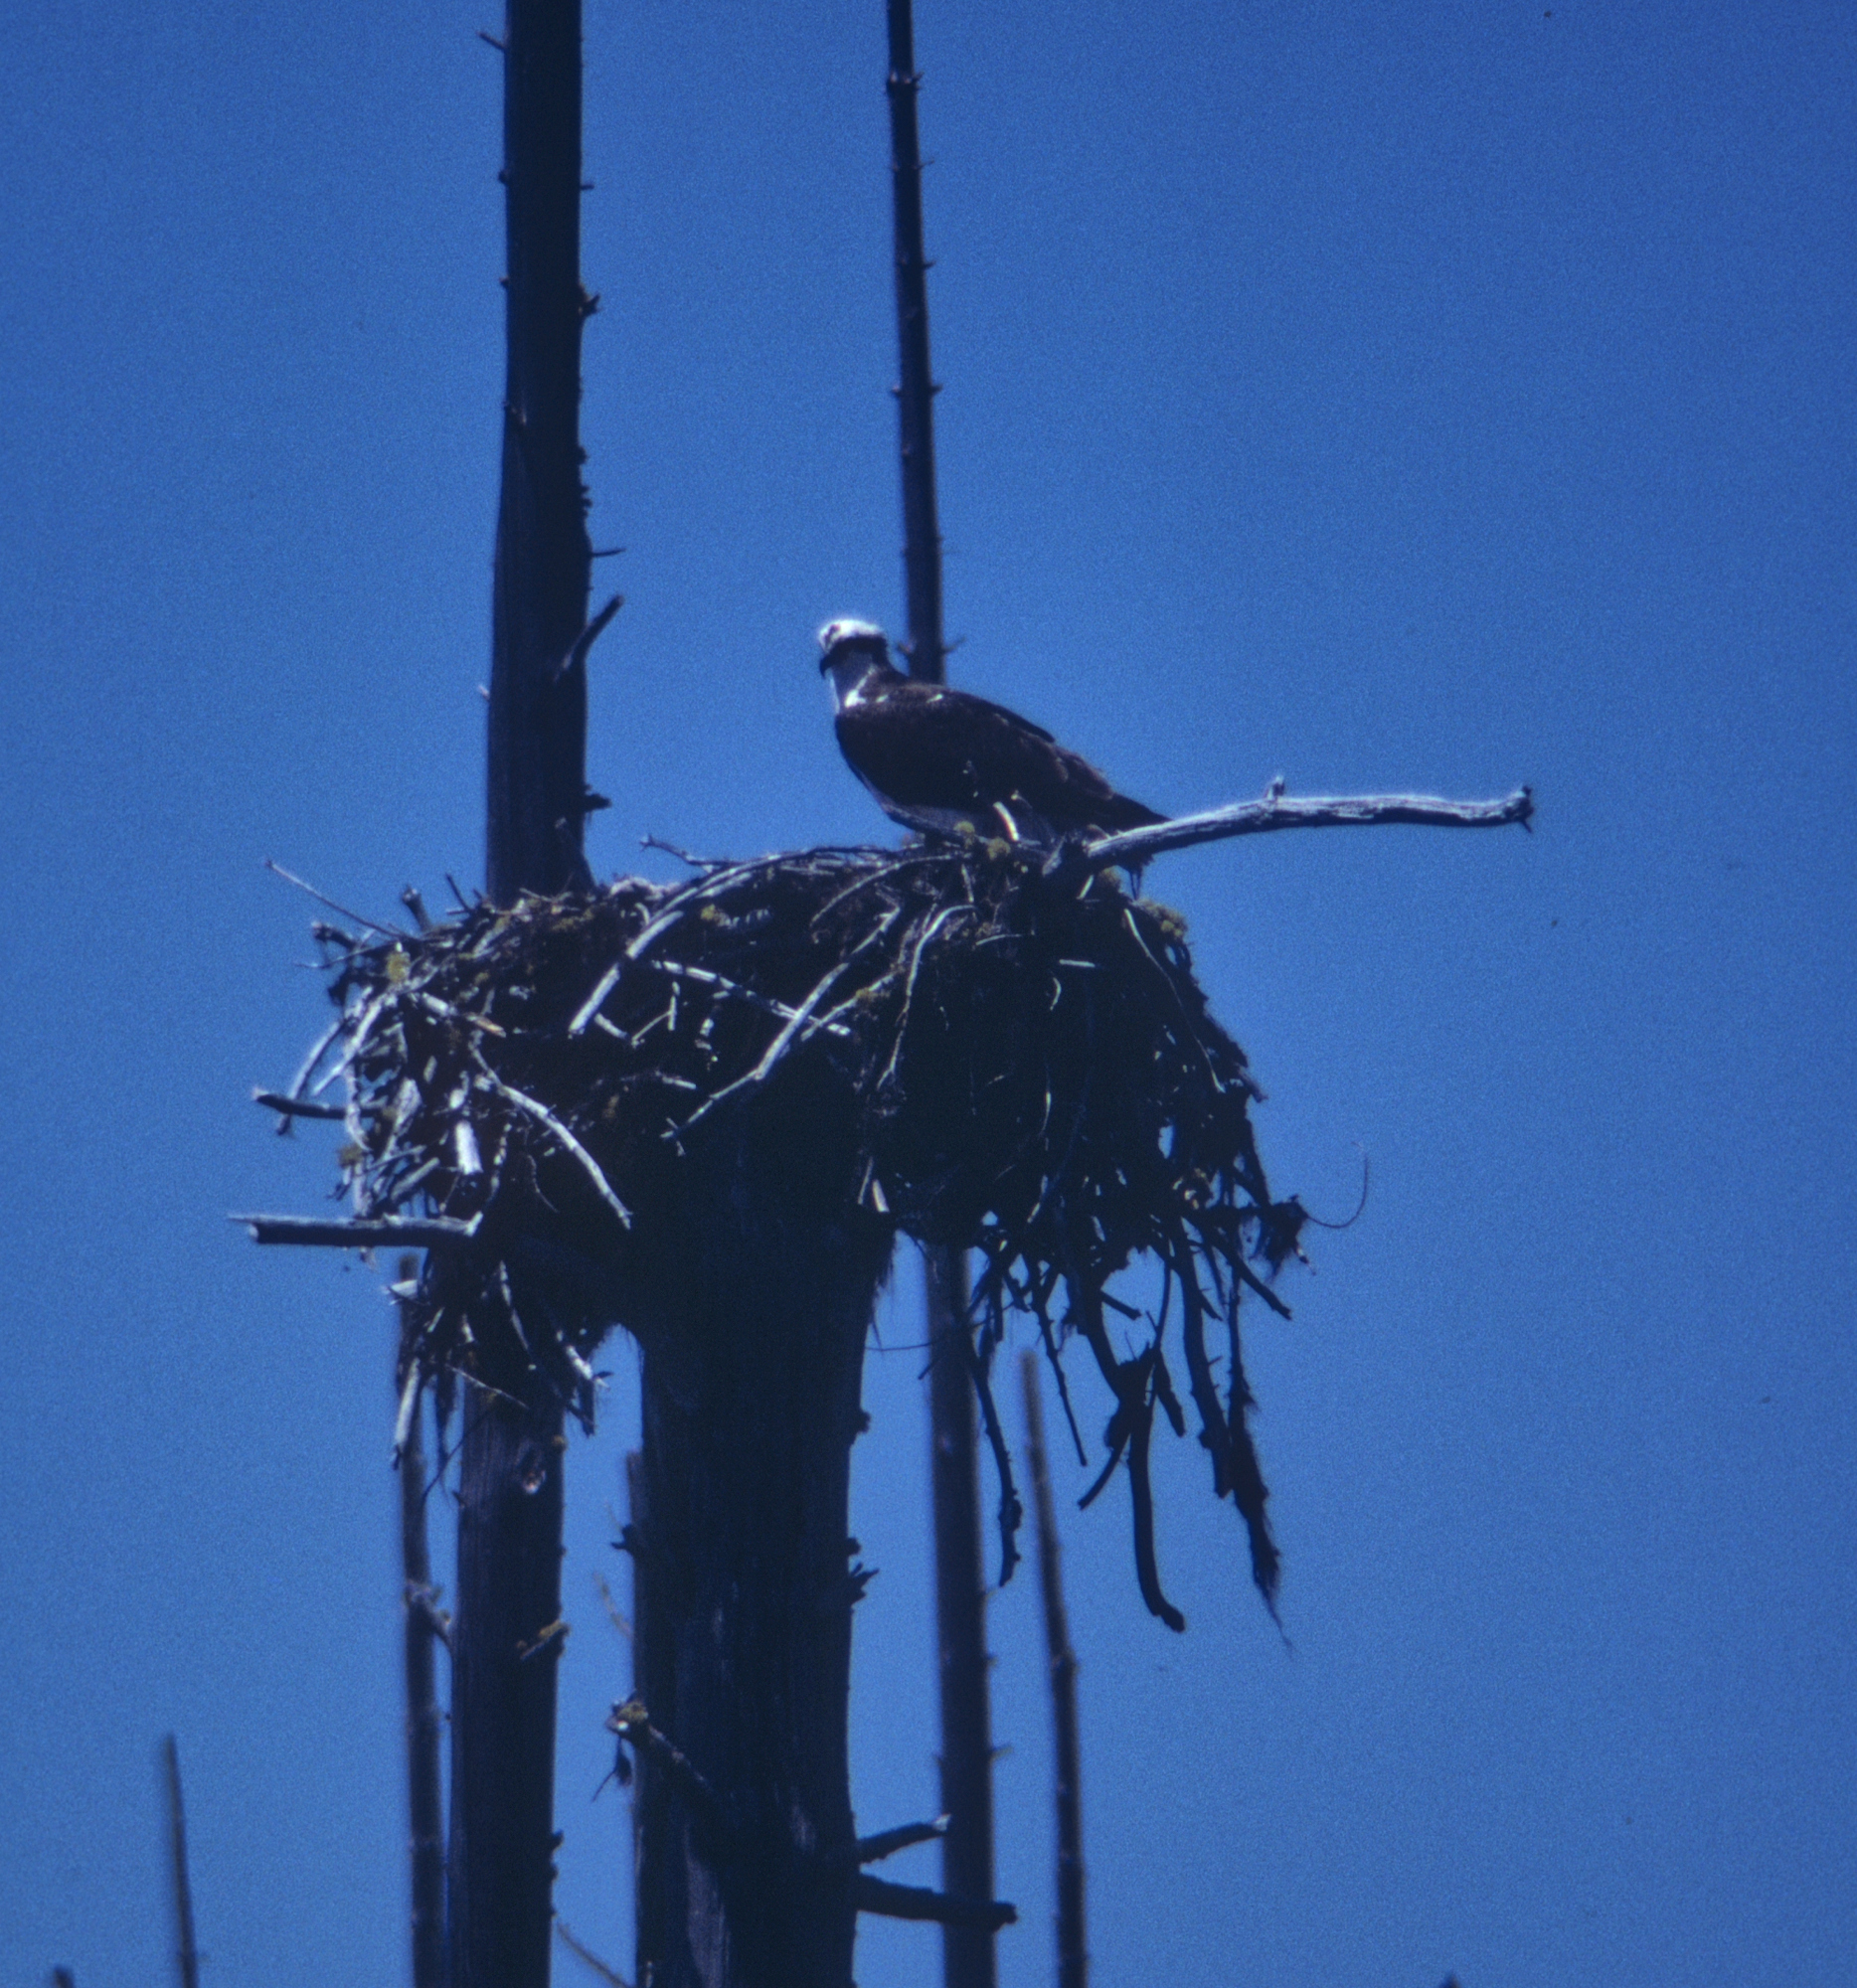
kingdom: Animalia
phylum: Chordata
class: Aves
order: Accipitriformes
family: Pandionidae
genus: Pandion
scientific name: Pandion haliaetus
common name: Osprey
